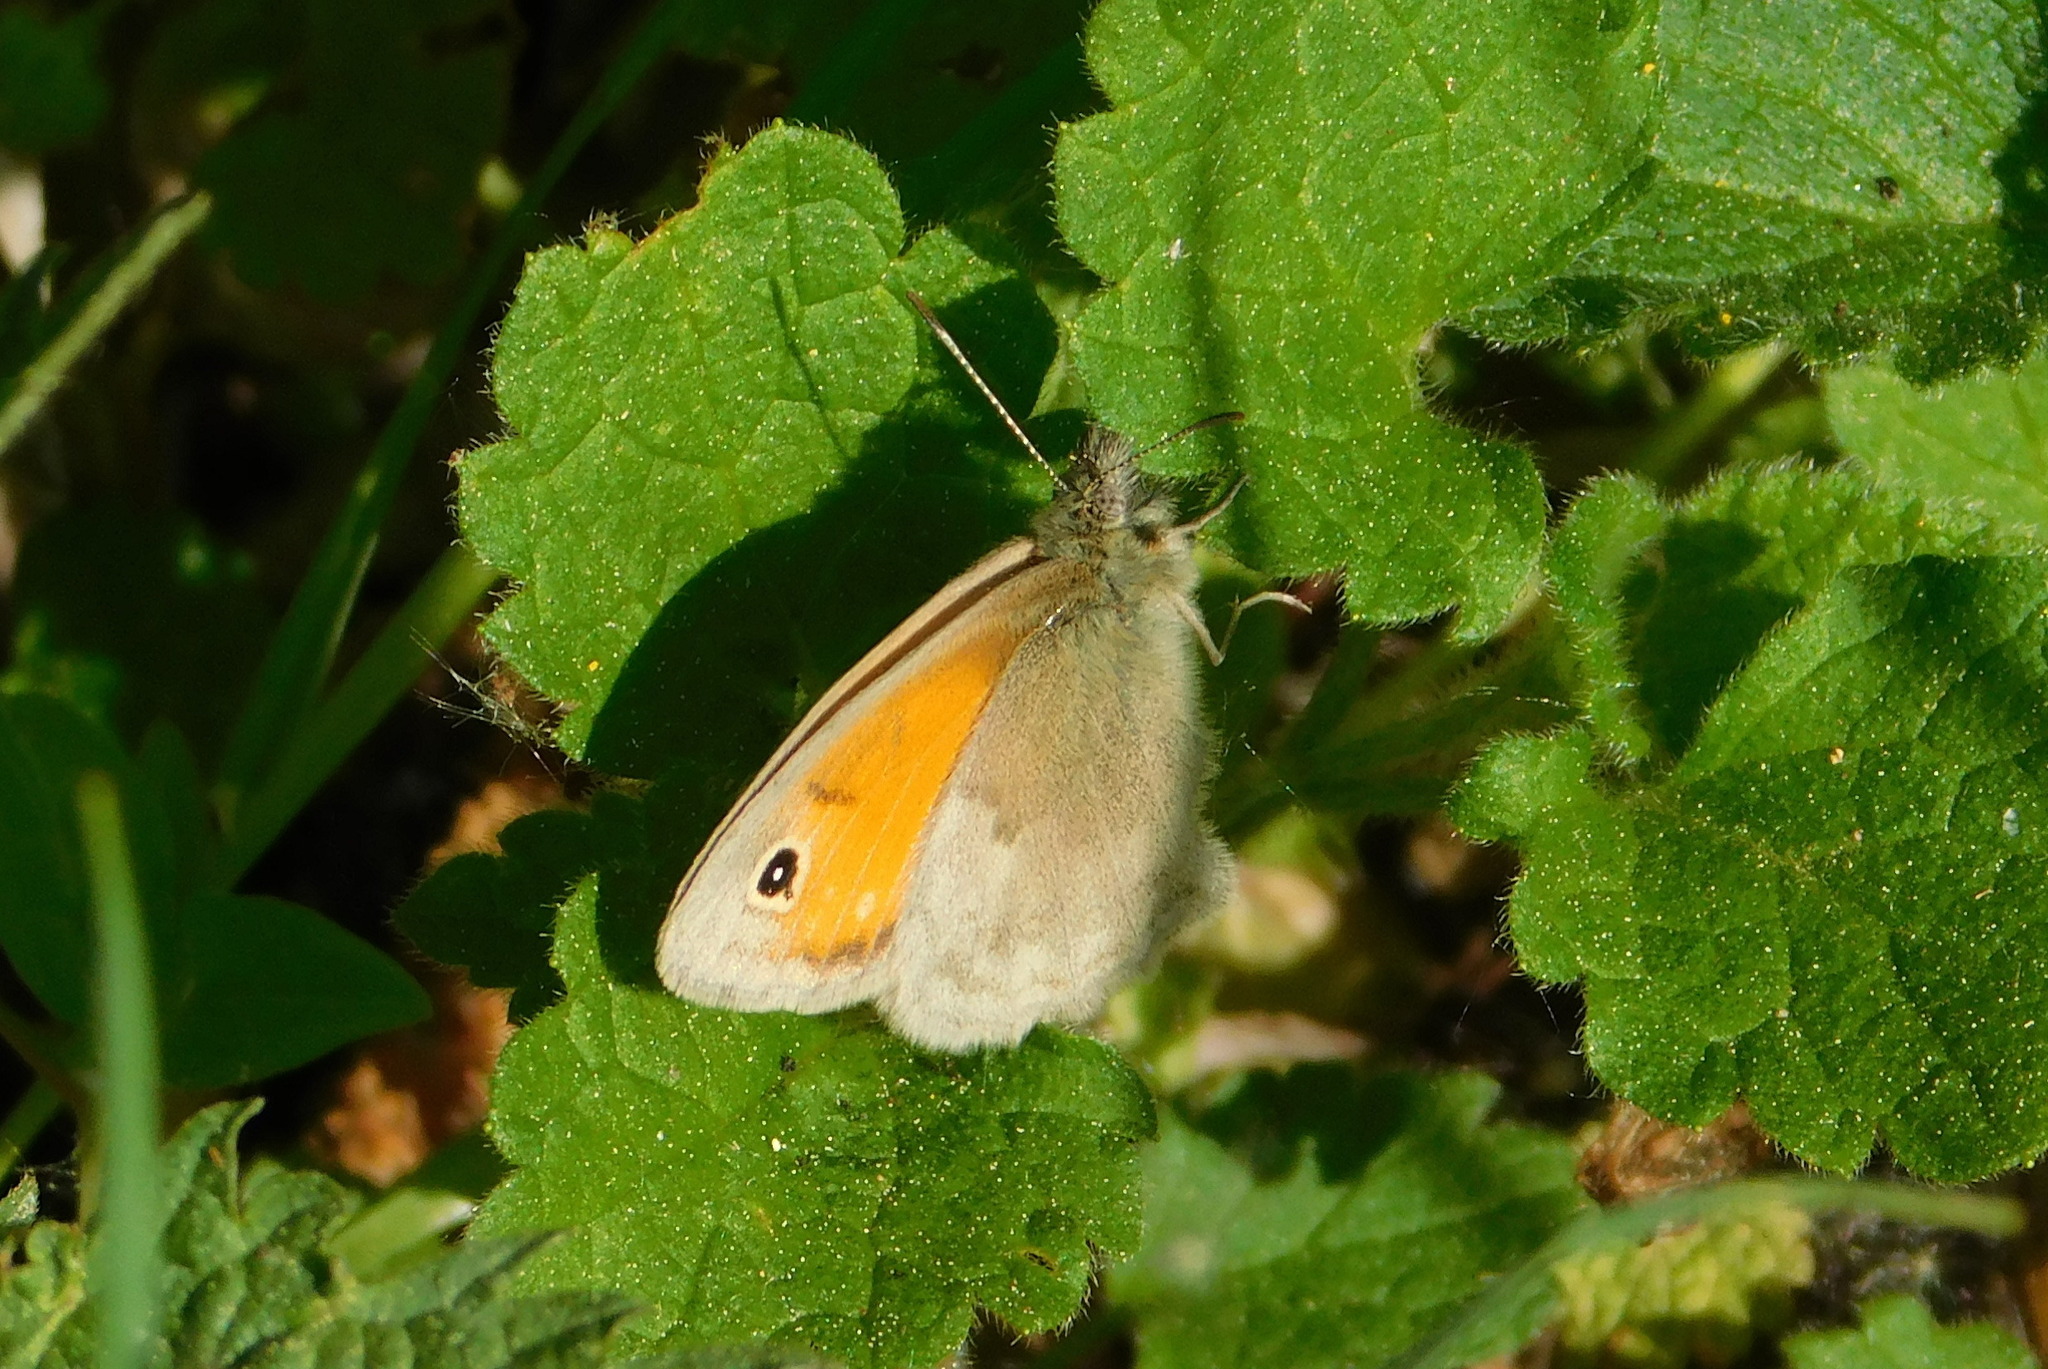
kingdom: Animalia
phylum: Arthropoda
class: Insecta
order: Lepidoptera
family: Nymphalidae
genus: Coenonympha
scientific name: Coenonympha pamphilus
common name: Small heath
